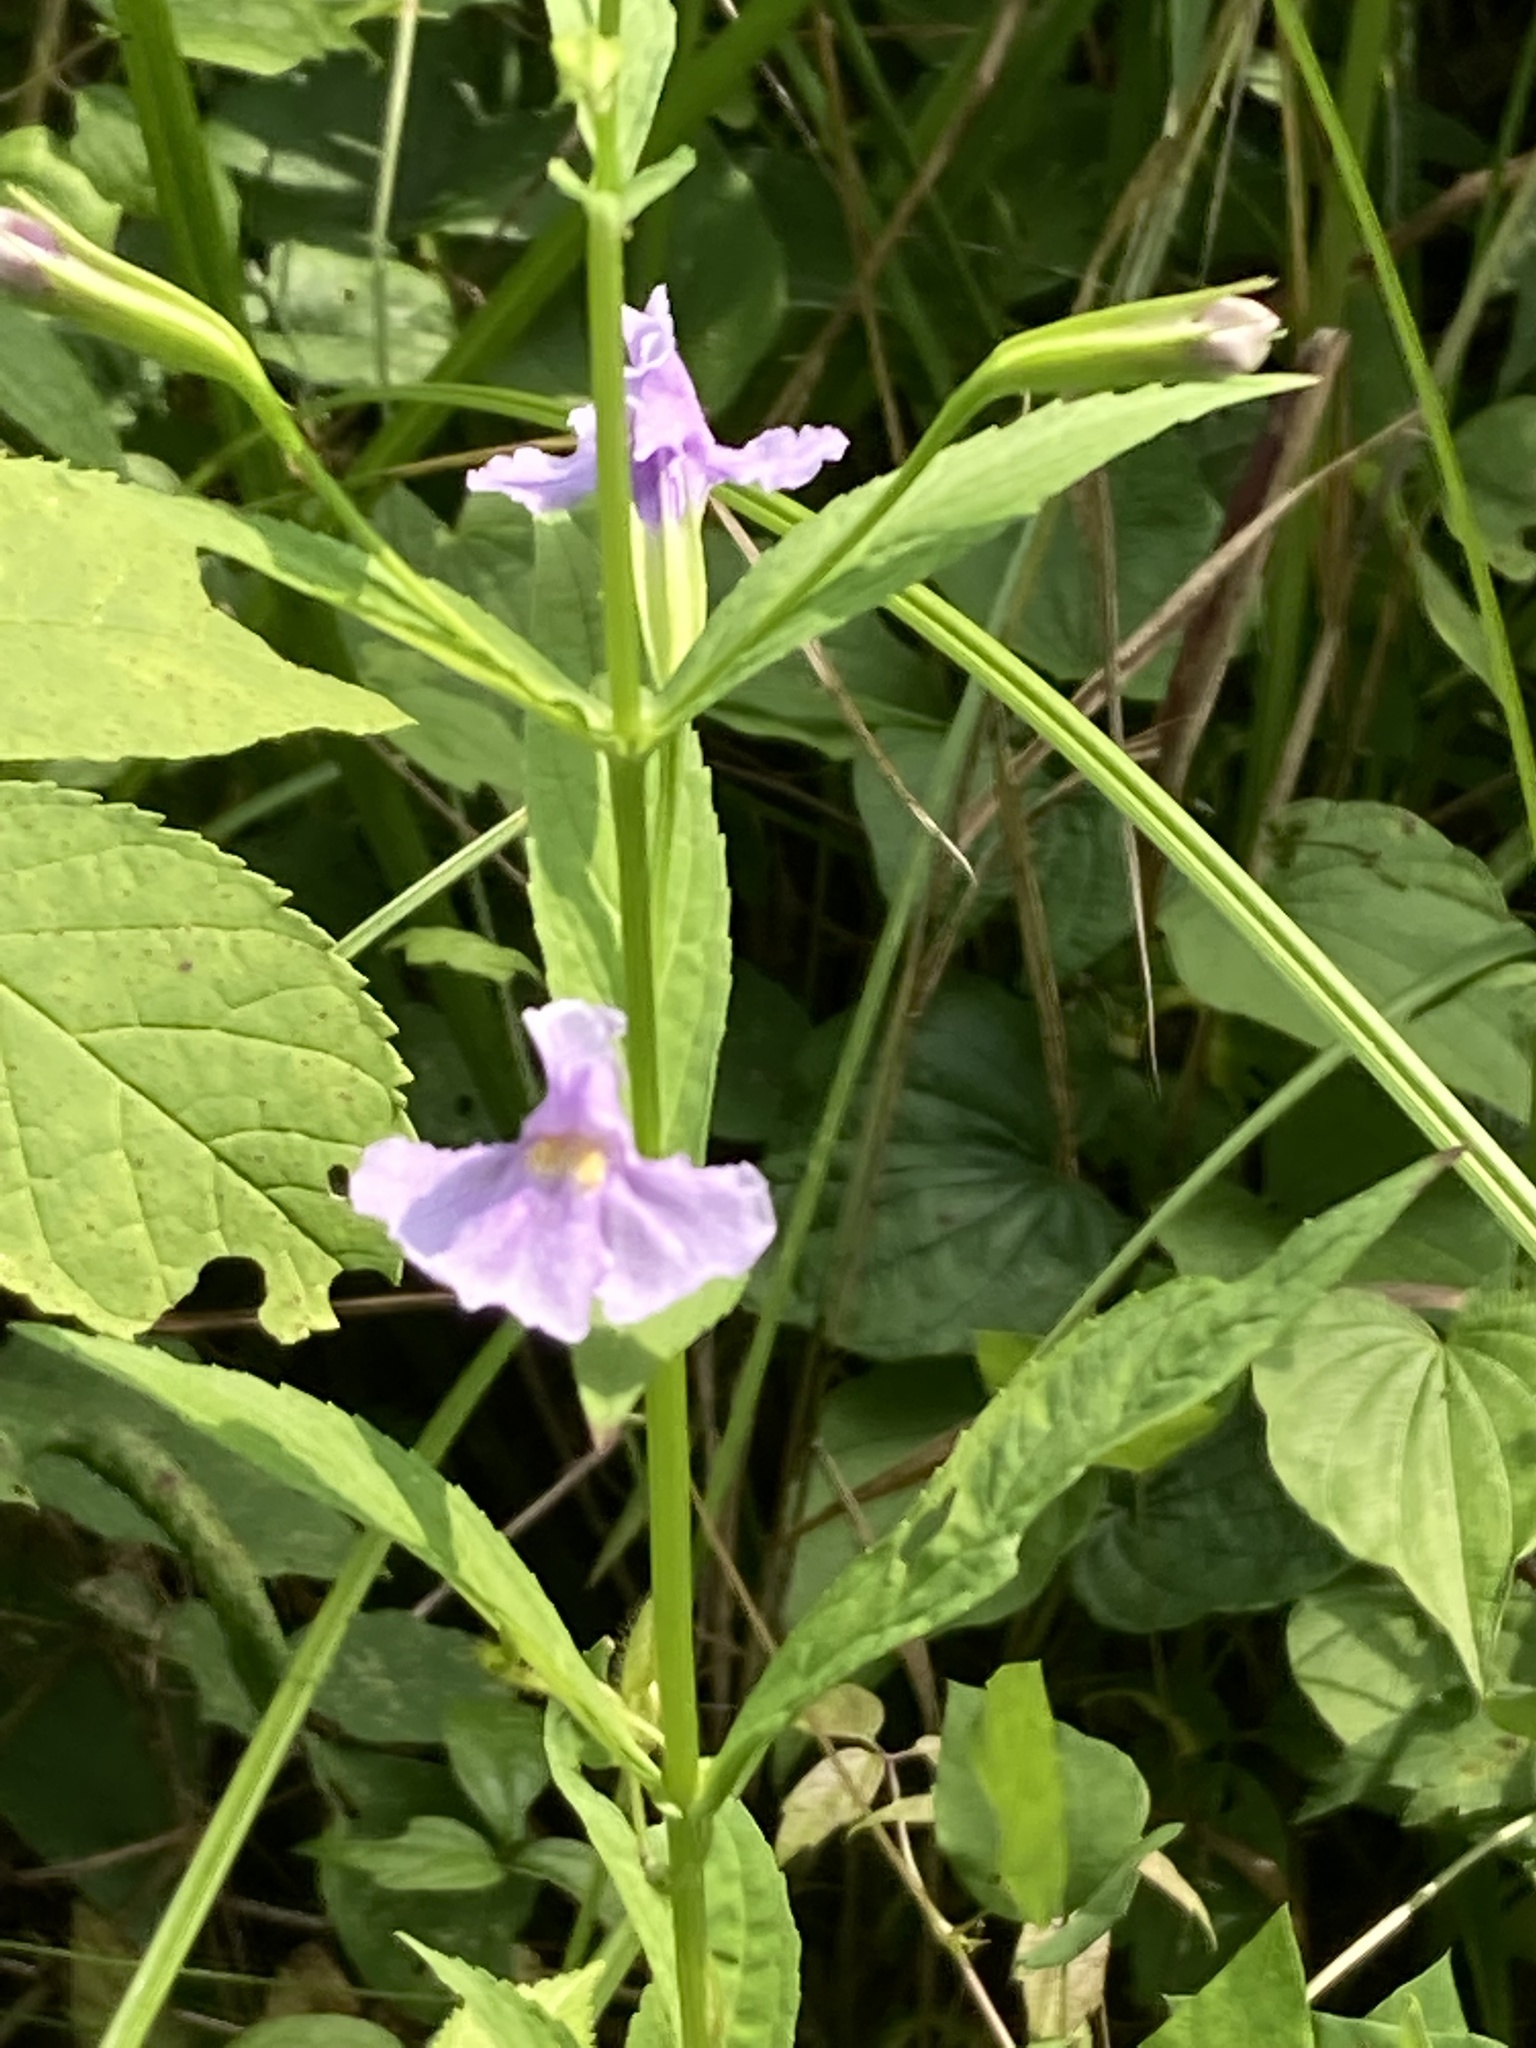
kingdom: Plantae
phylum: Tracheophyta
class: Magnoliopsida
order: Lamiales
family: Phrymaceae
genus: Mimulus
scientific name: Mimulus ringens
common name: Allegheny monkeyflower
